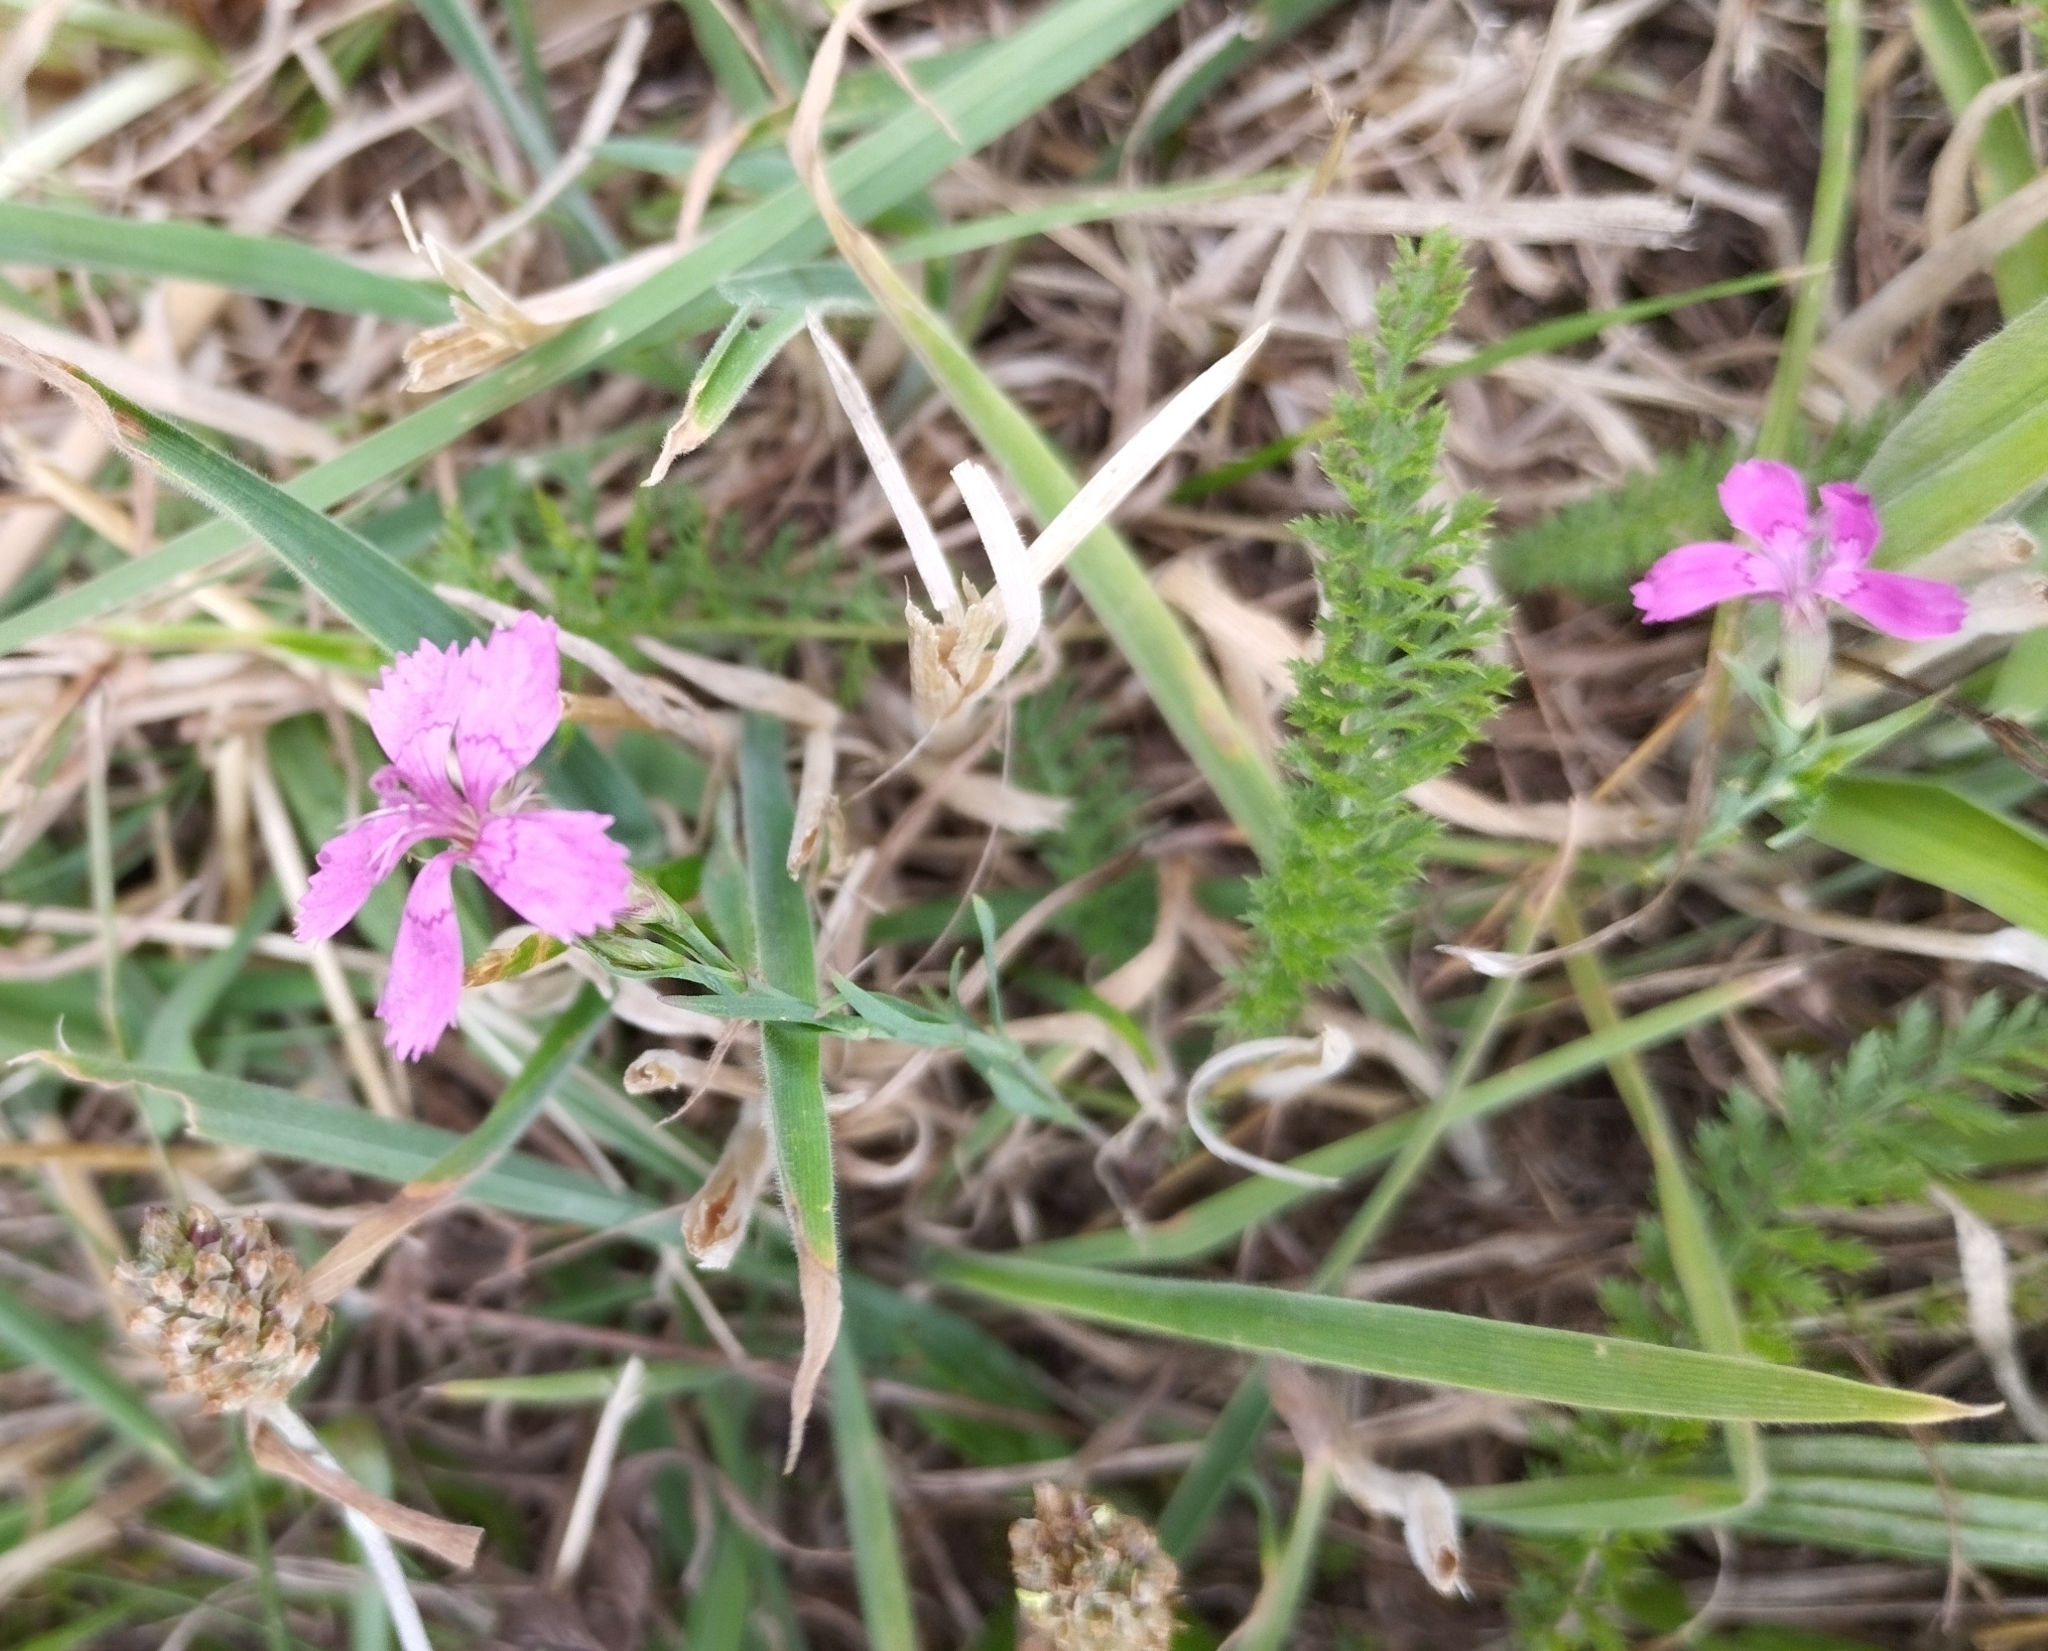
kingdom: Plantae
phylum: Tracheophyta
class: Magnoliopsida
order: Caryophyllales
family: Caryophyllaceae
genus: Dianthus
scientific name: Dianthus deltoides
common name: Maiden pink
